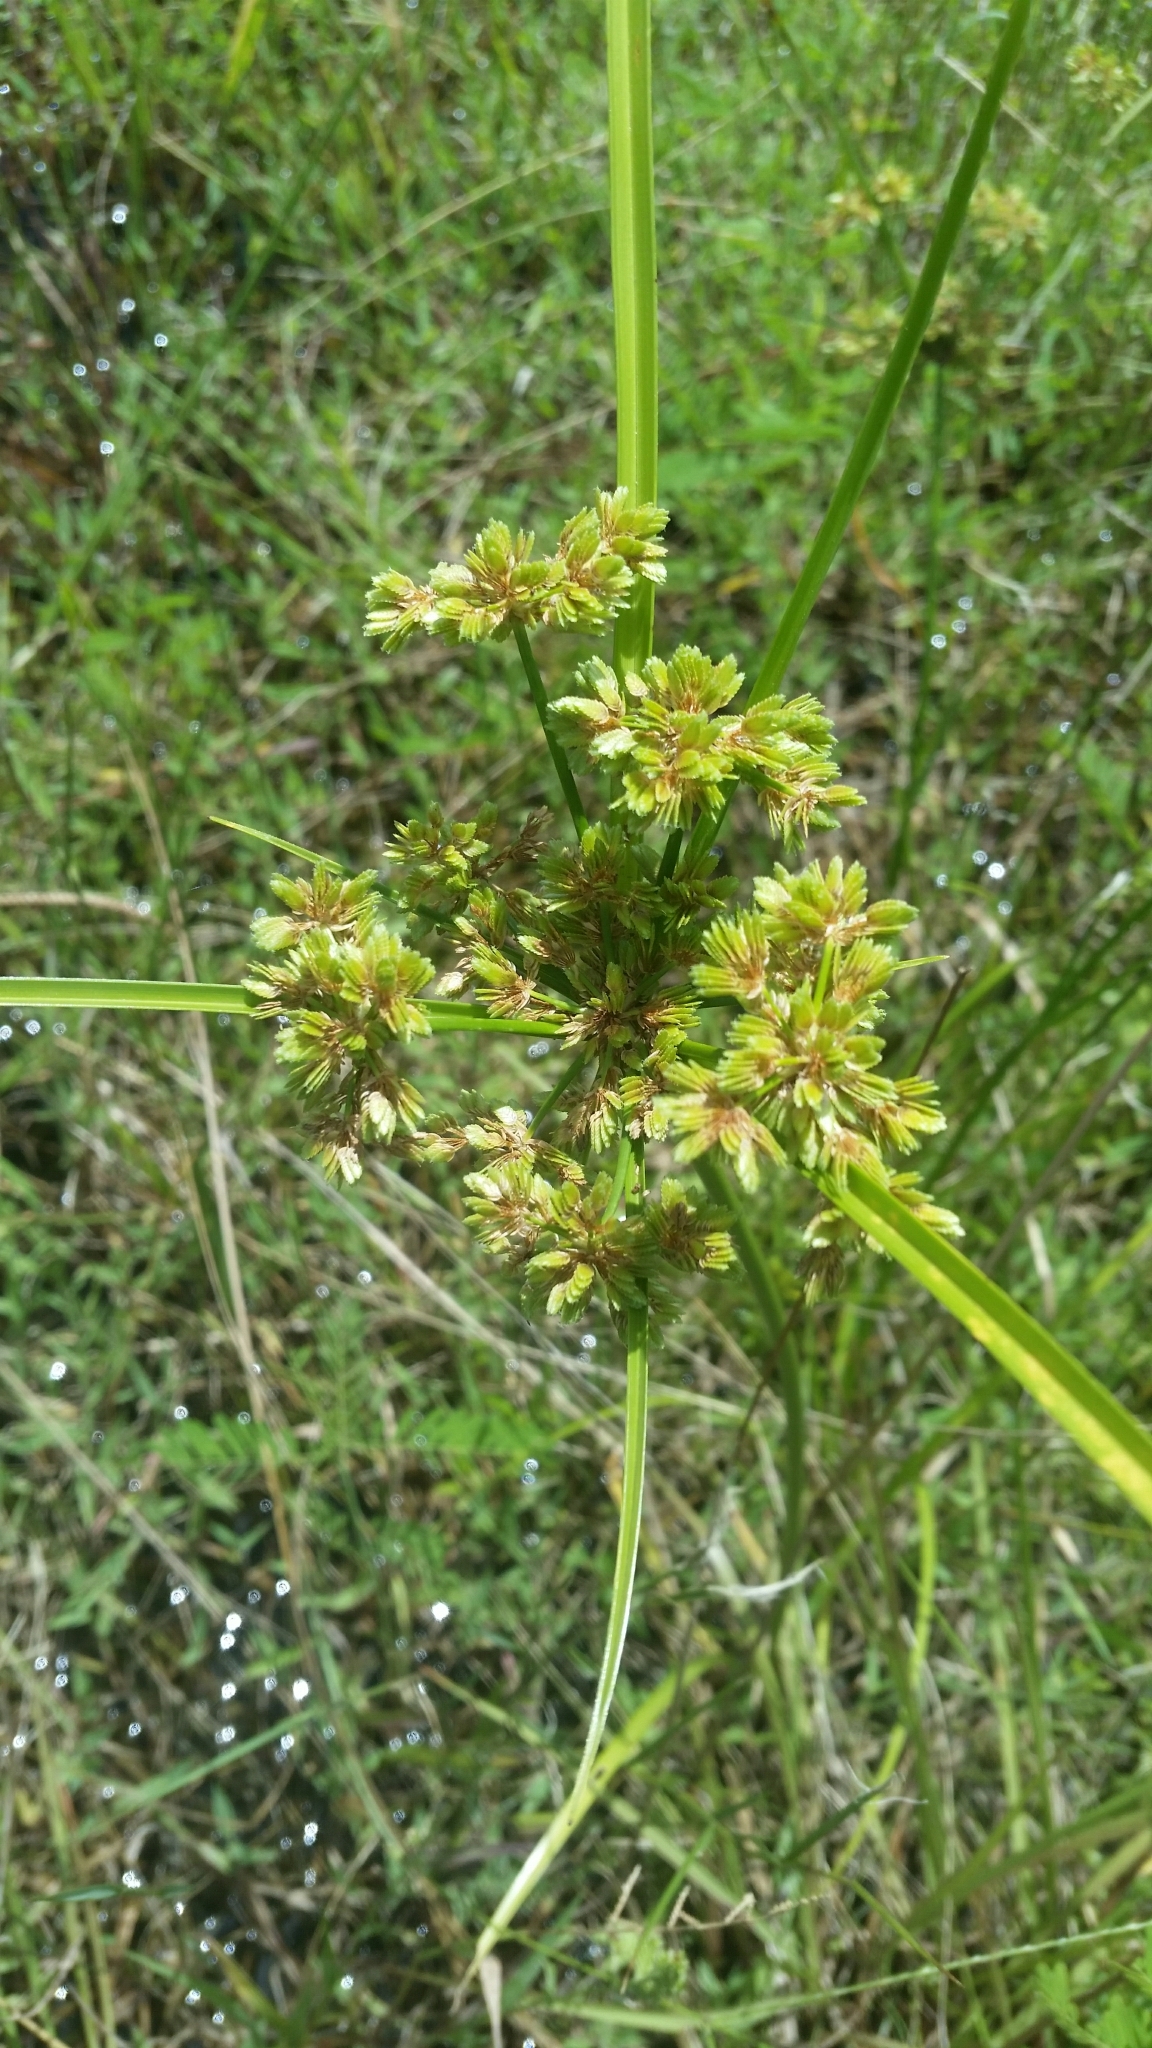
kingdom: Plantae
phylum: Tracheophyta
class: Liliopsida
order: Poales
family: Cyperaceae
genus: Cyperus
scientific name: Cyperus distinctus
